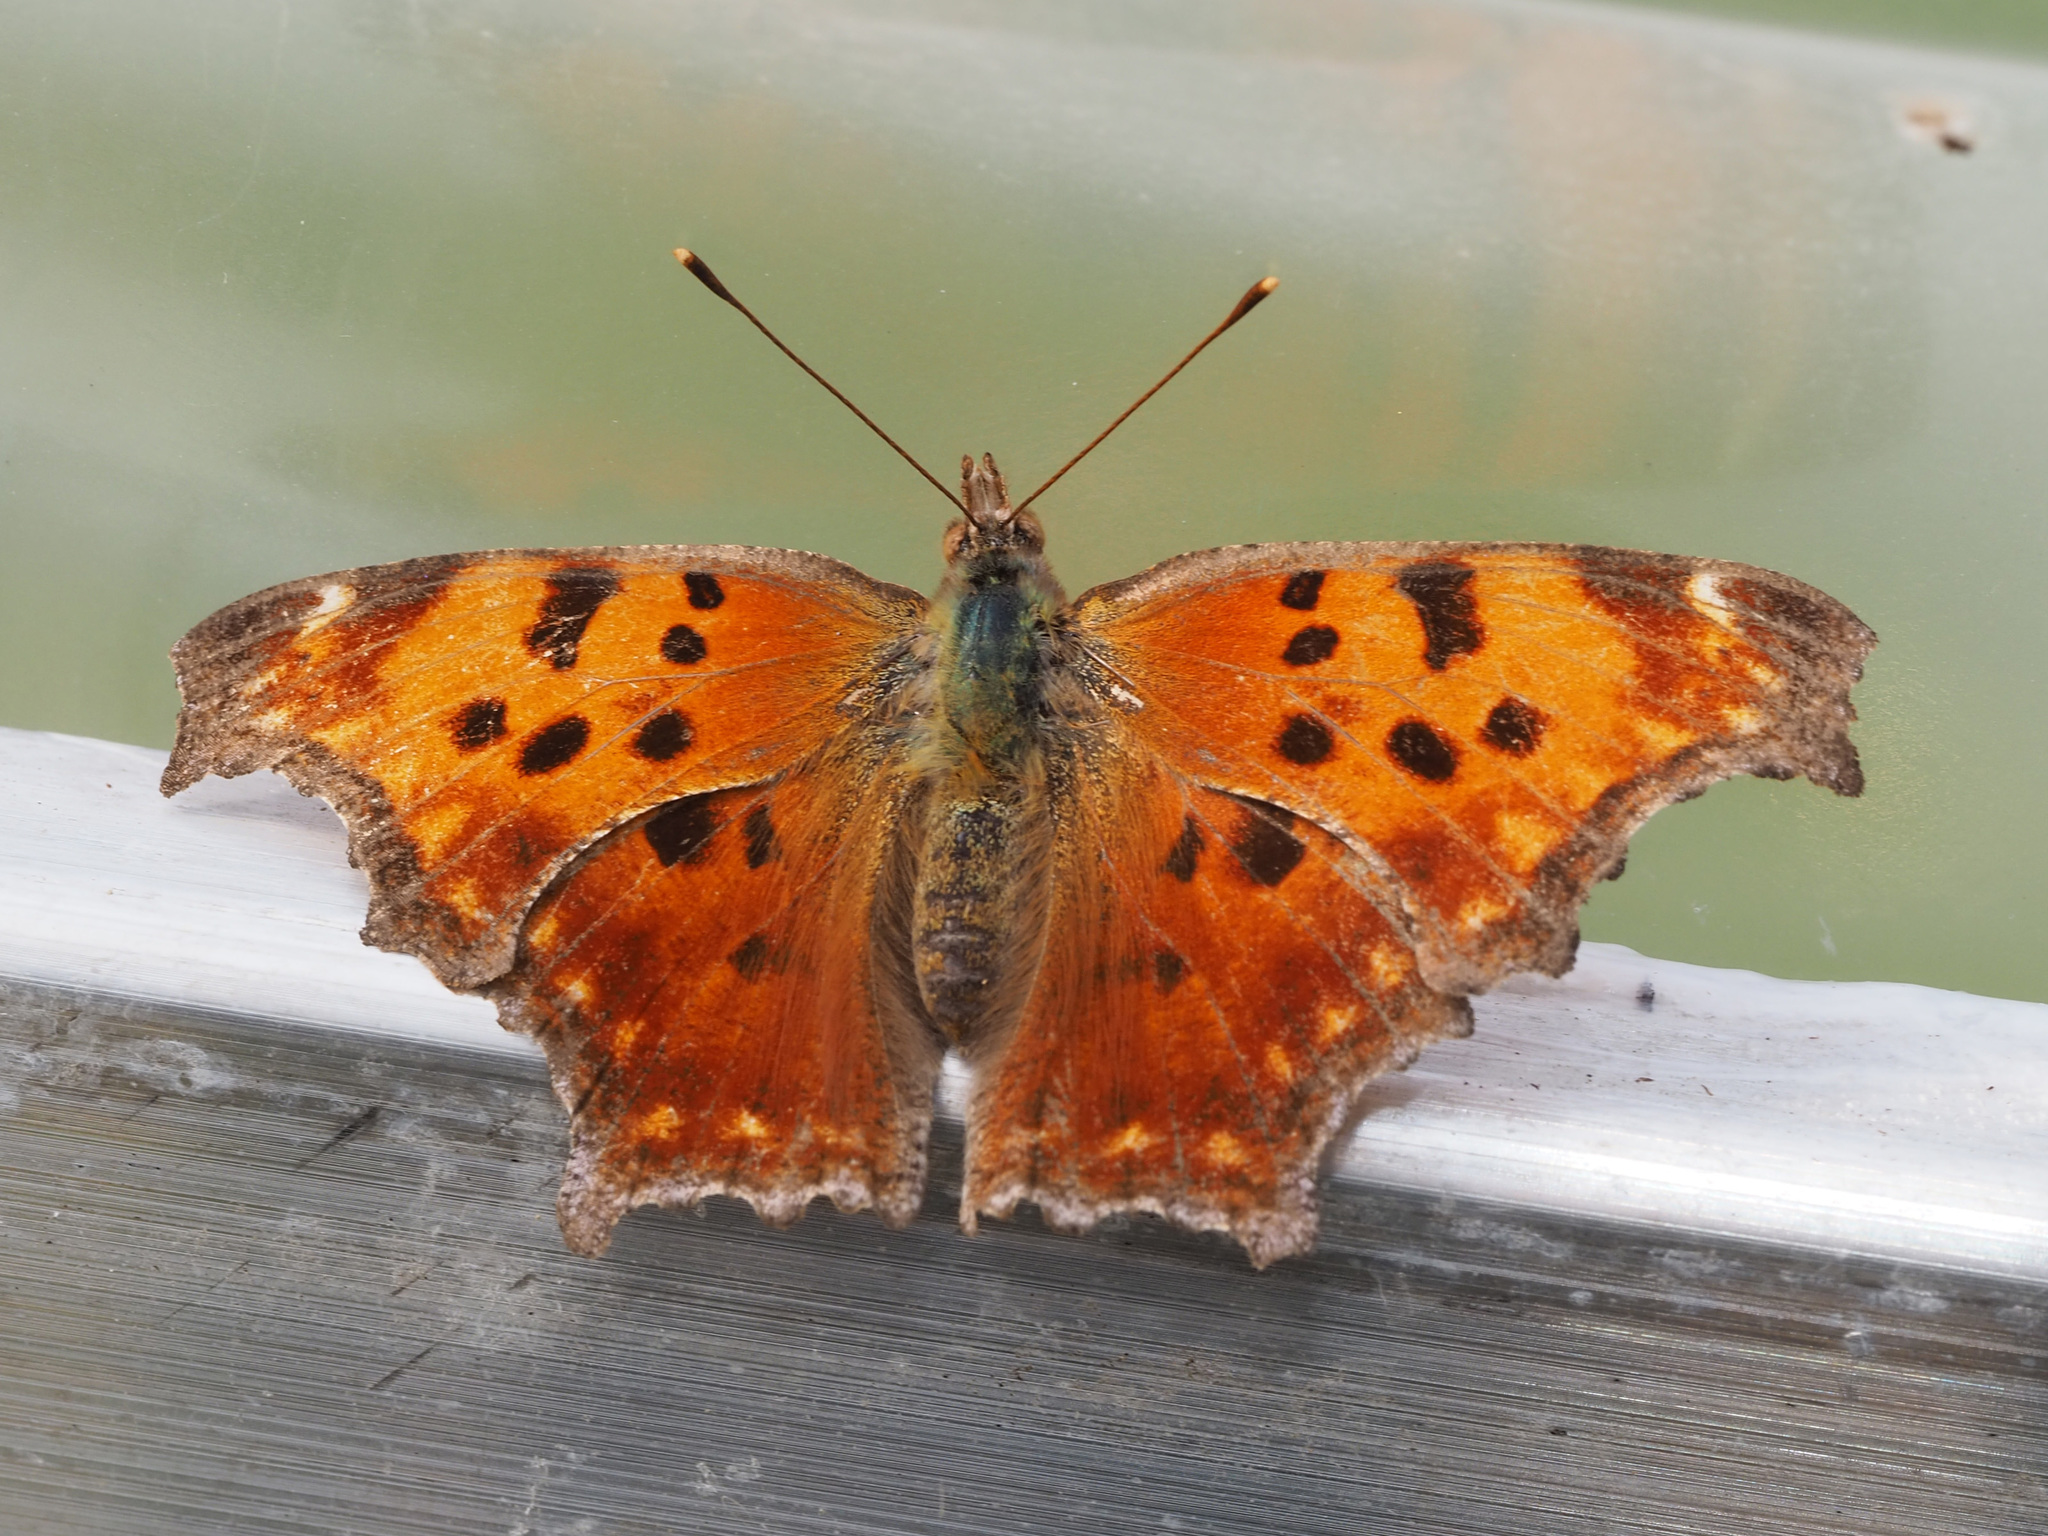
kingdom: Animalia
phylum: Arthropoda
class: Insecta
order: Lepidoptera
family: Nymphalidae
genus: Polygonia
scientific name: Polygonia comma
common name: Eastern comma
